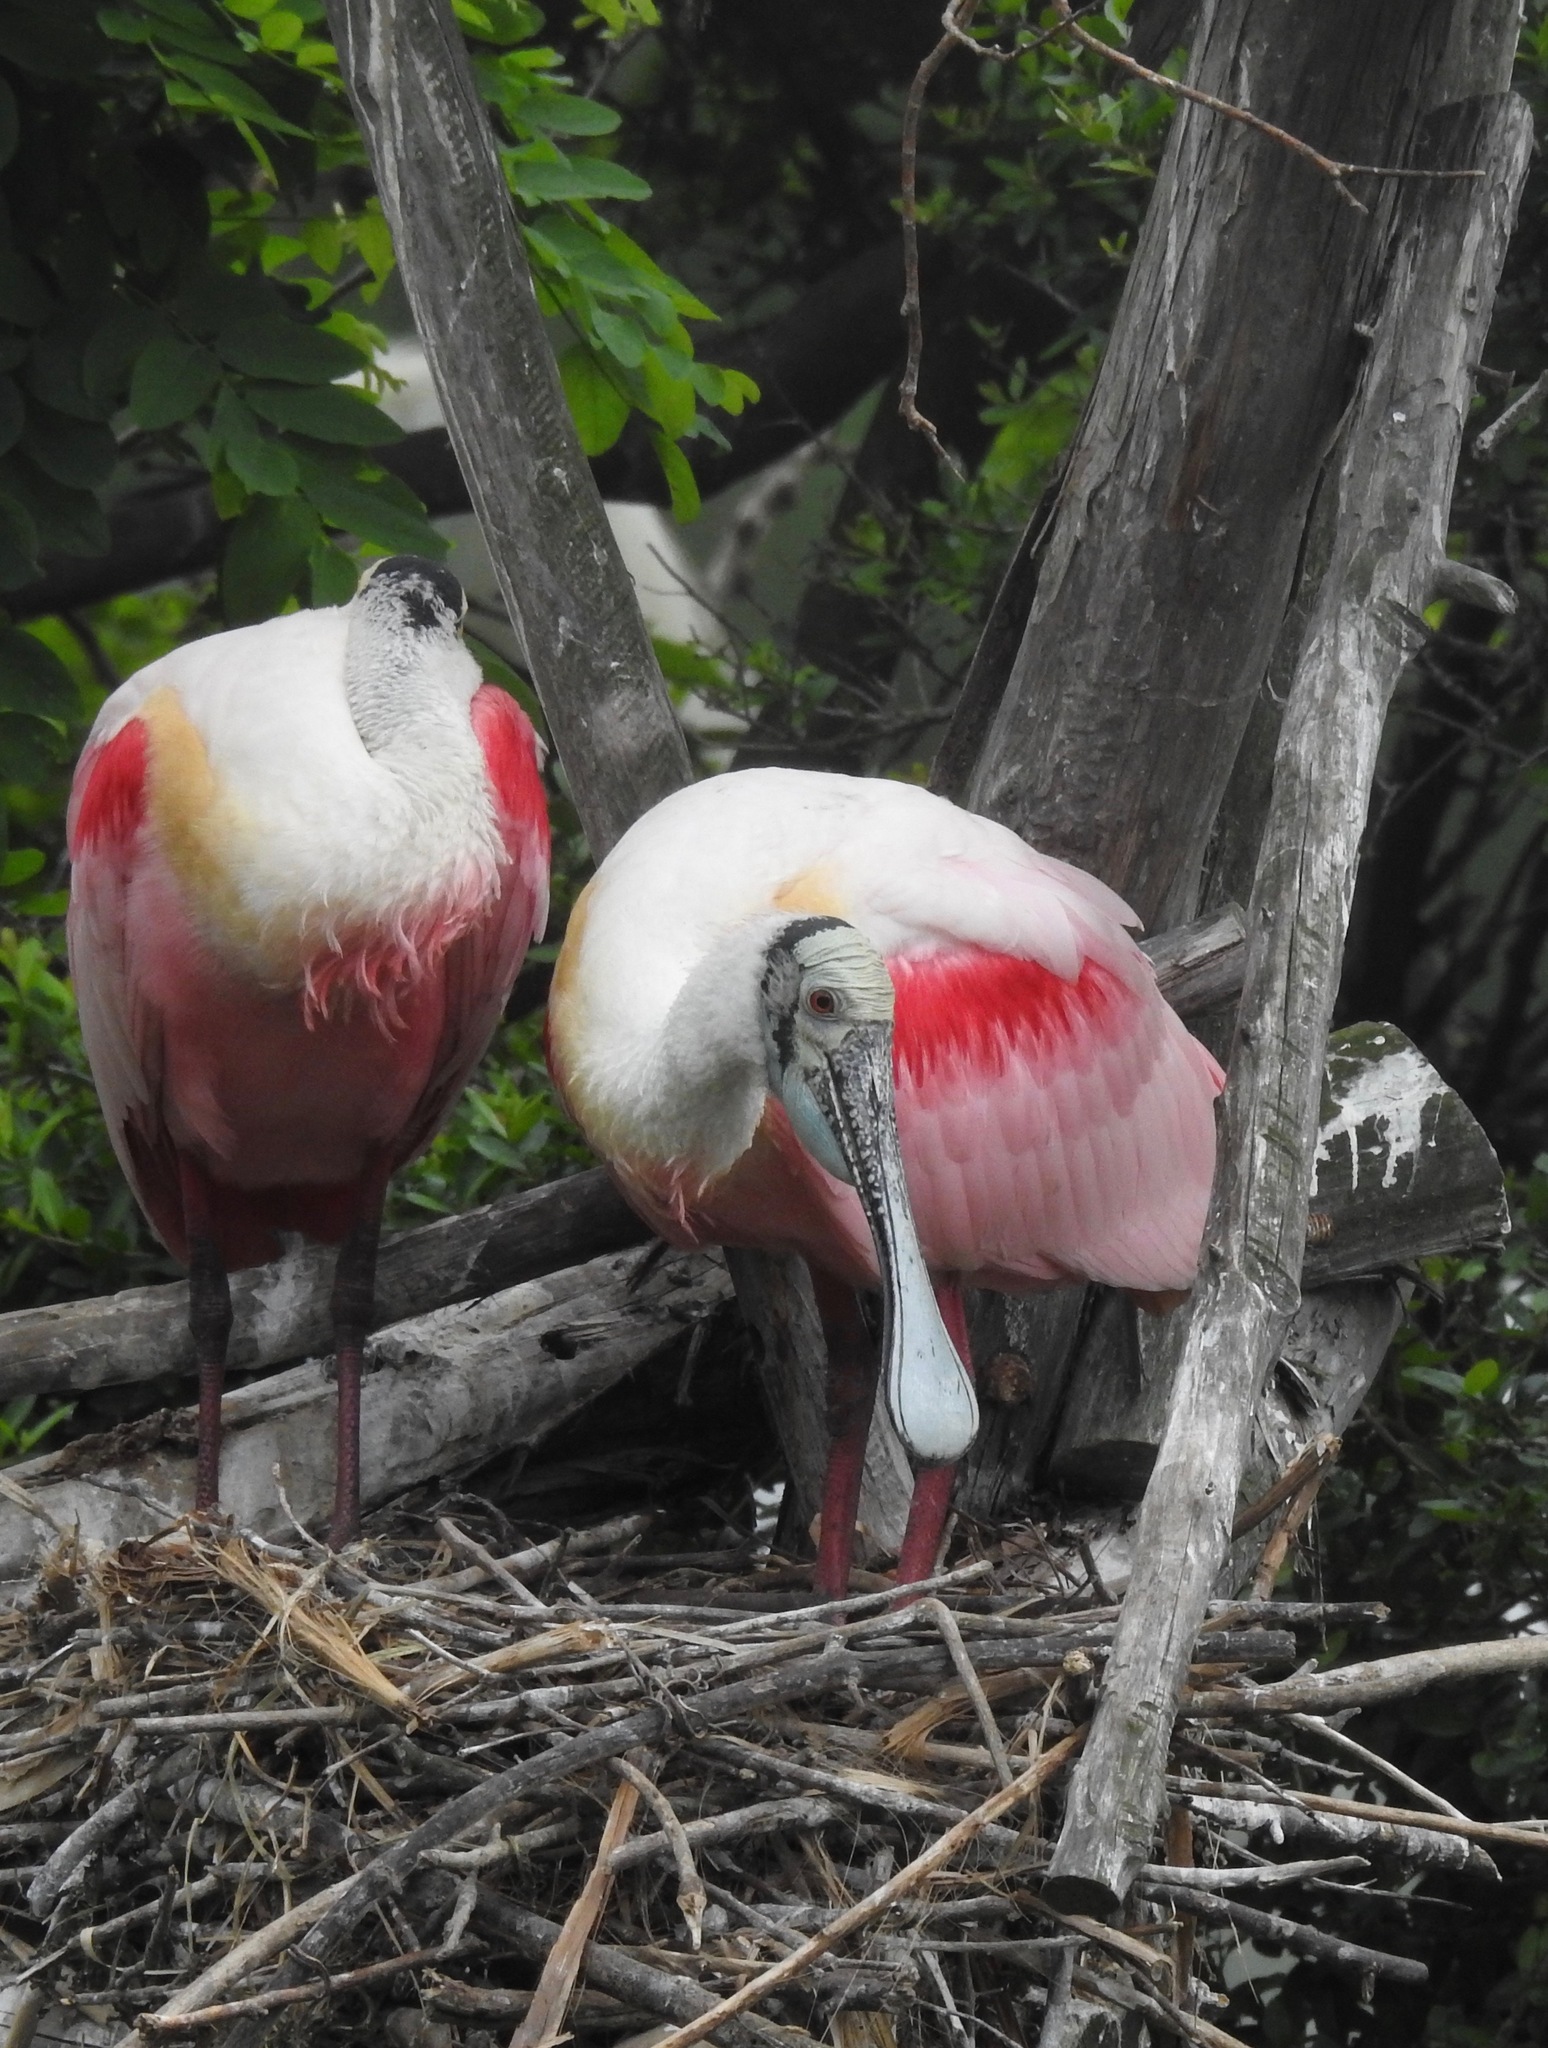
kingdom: Animalia
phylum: Chordata
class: Aves
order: Pelecaniformes
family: Threskiornithidae
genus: Platalea
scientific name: Platalea ajaja
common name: Roseate spoonbill
